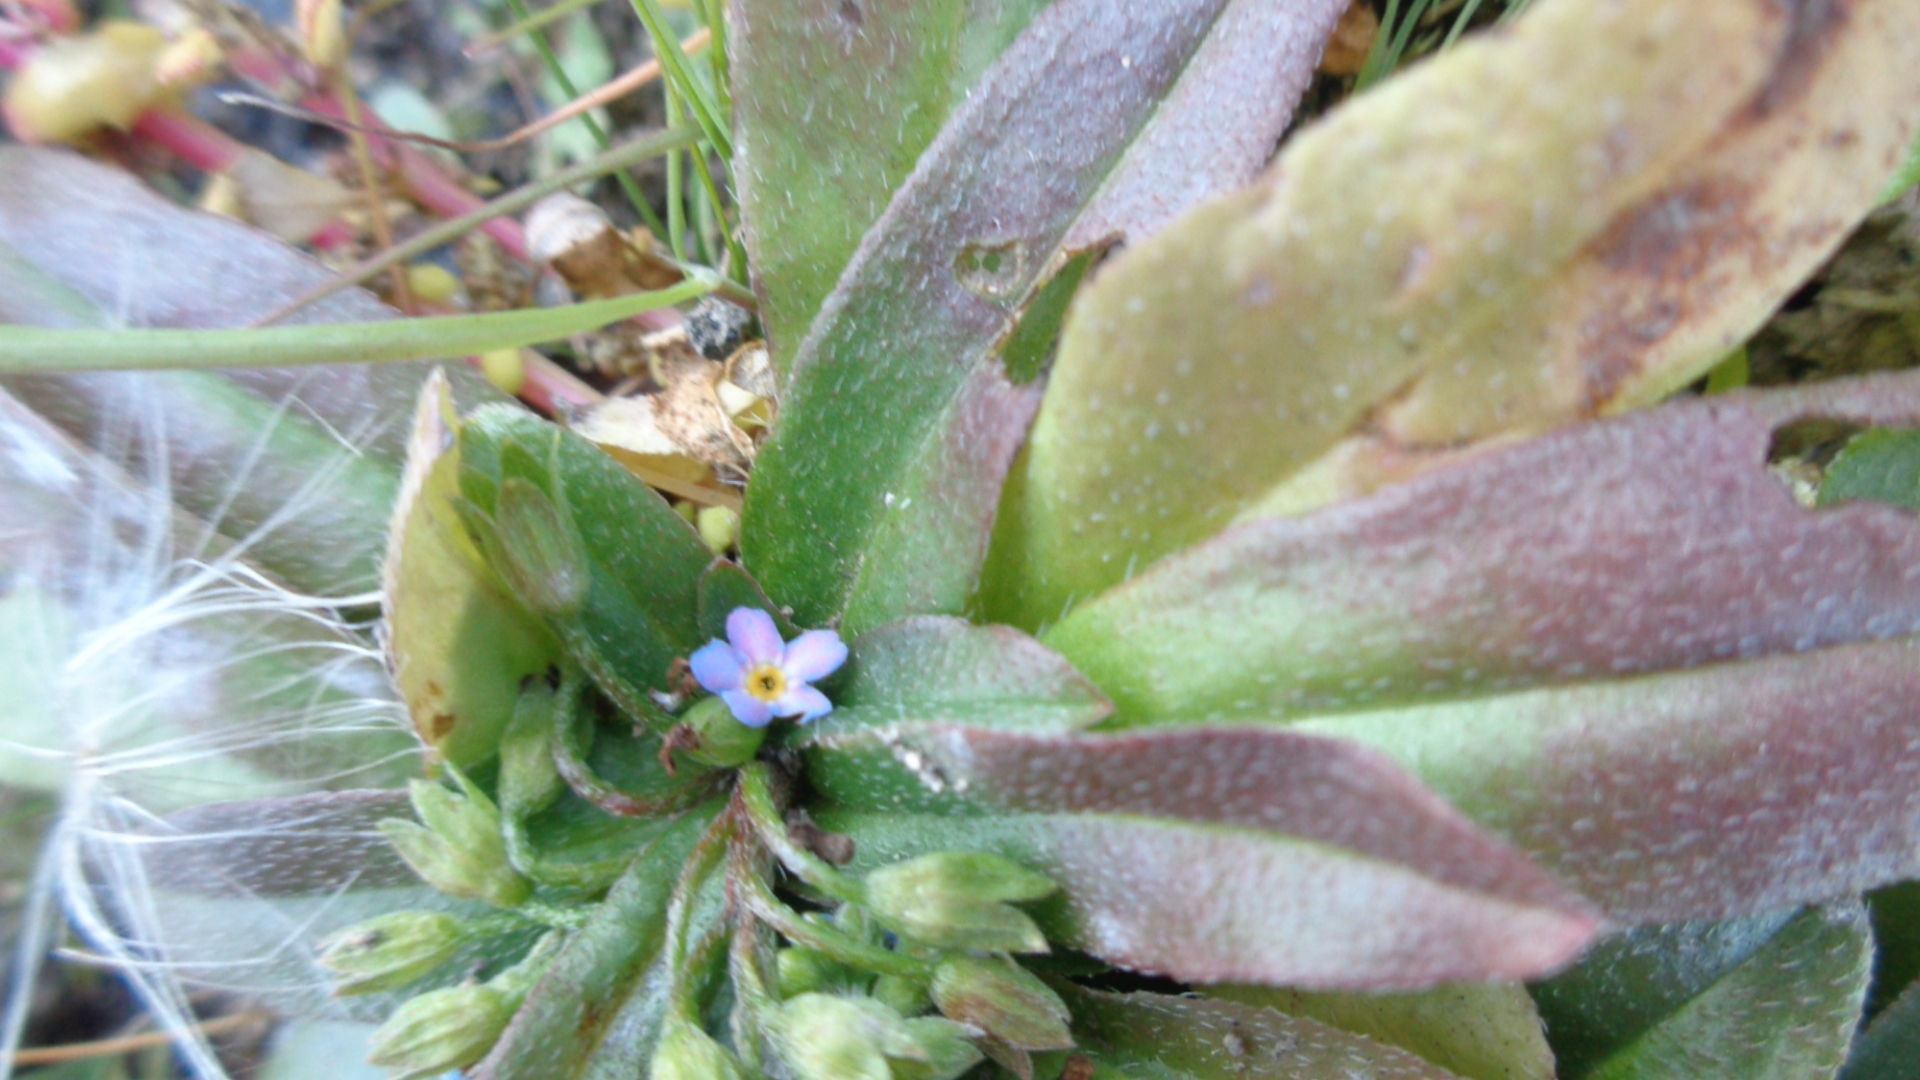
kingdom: Plantae
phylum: Tracheophyta
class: Magnoliopsida
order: Boraginales
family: Boraginaceae
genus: Myosotis
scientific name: Myosotis scorpioides
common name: Water forget-me-not
